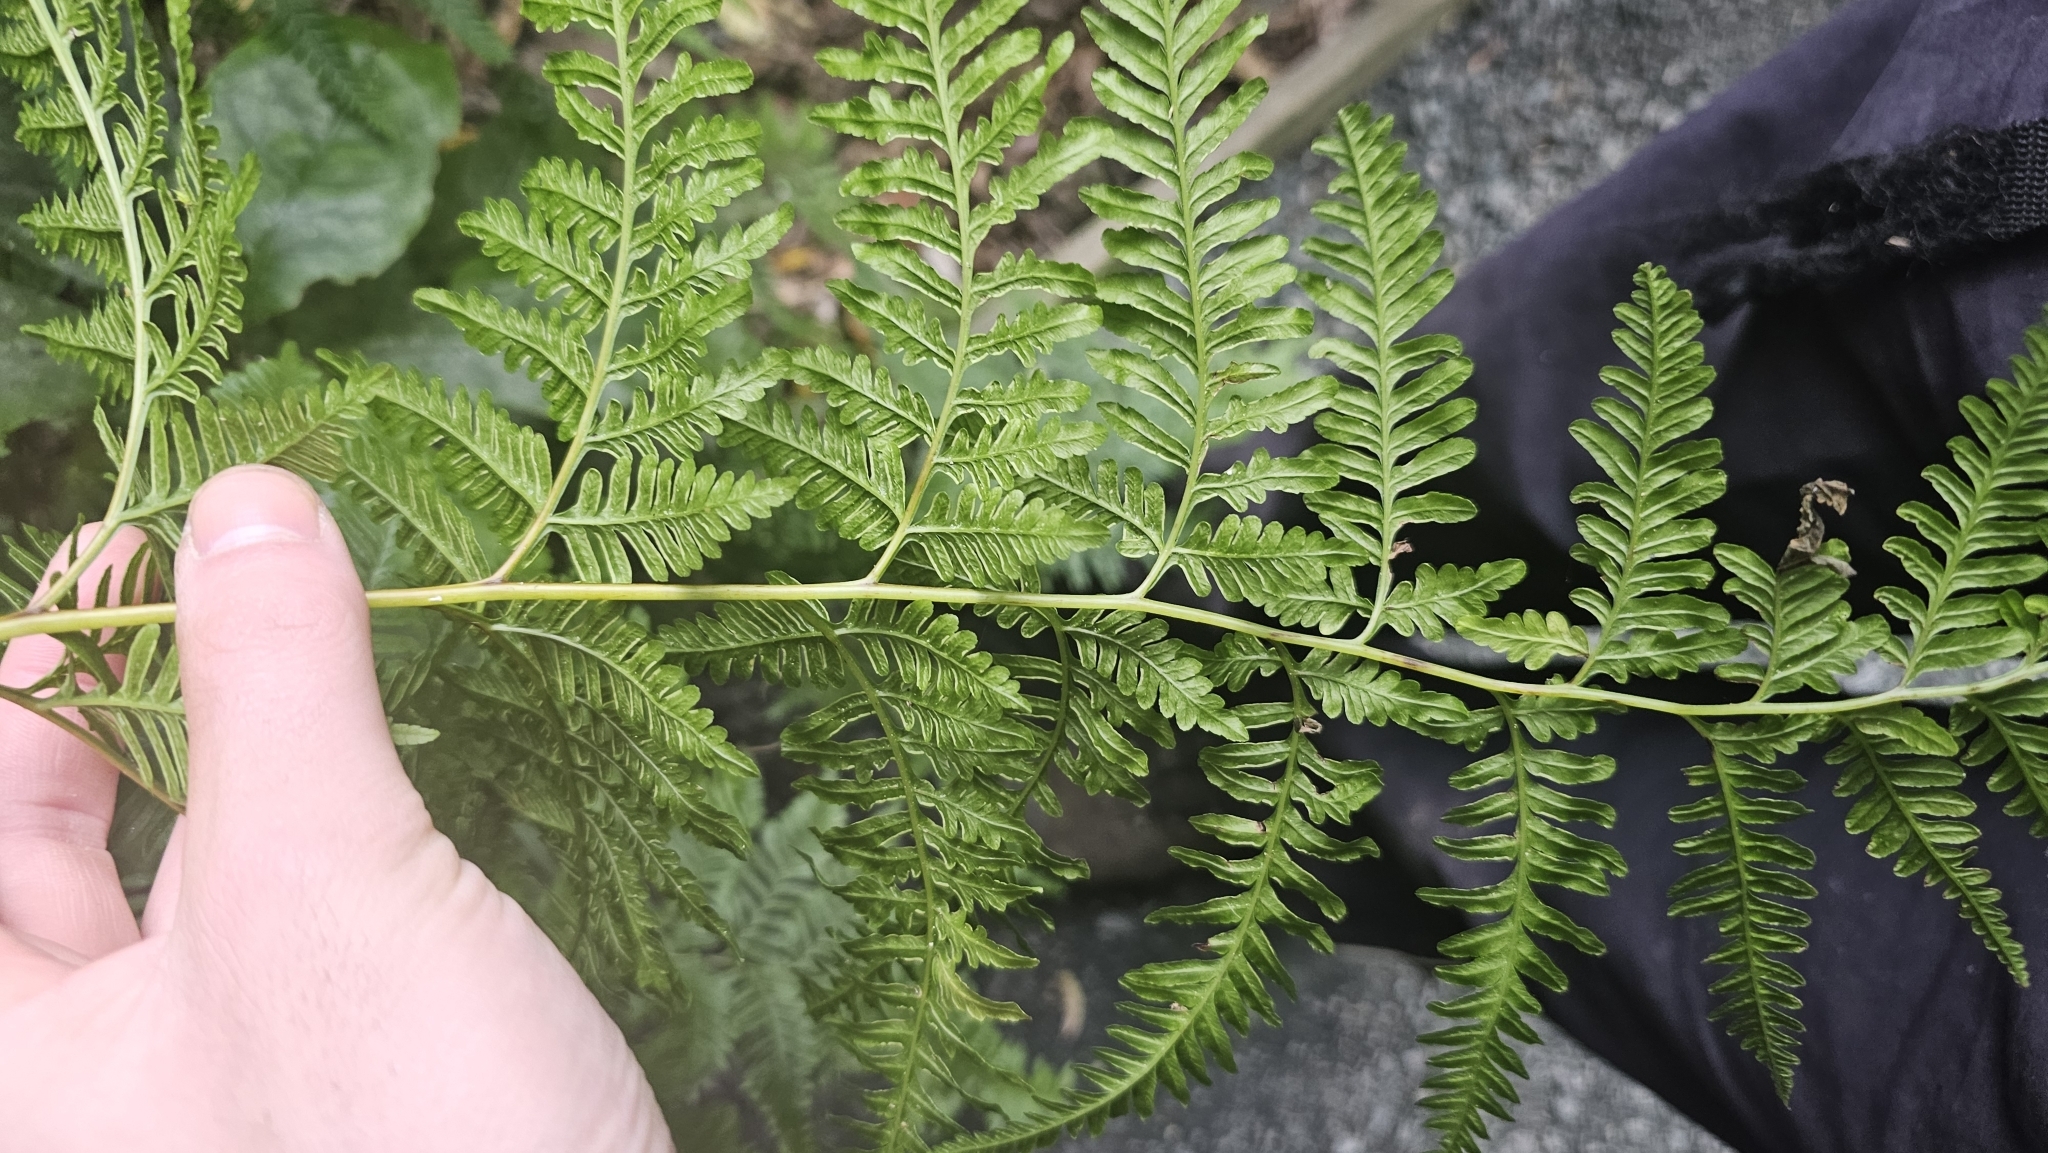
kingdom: Plantae
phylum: Tracheophyta
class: Polypodiopsida
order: Polypodiales
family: Pteridaceae
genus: Pteris
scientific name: Pteris tremula
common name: Australian brake
